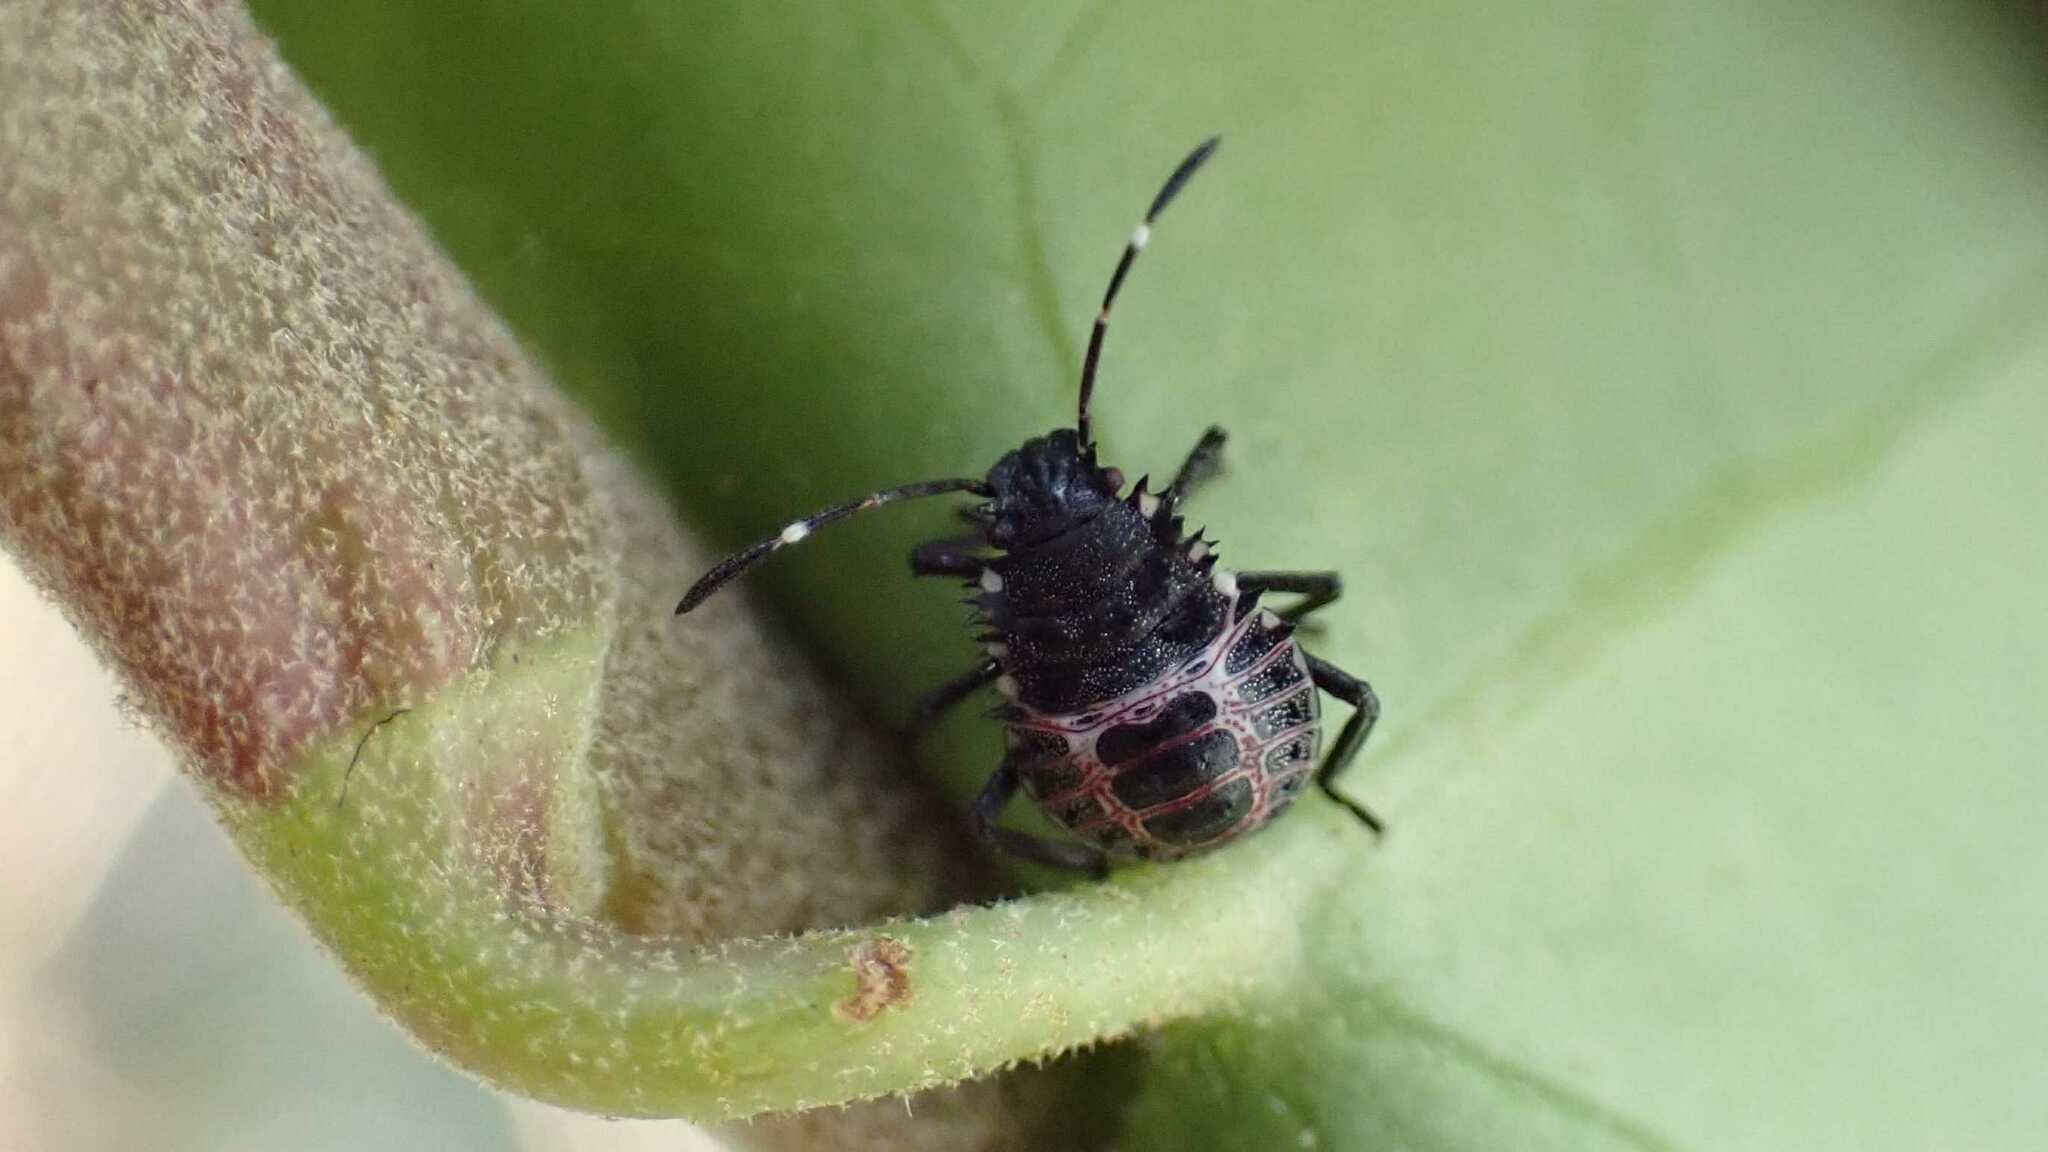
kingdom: Animalia
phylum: Arthropoda
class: Insecta
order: Hemiptera
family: Pentatomidae
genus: Halyomorpha
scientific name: Halyomorpha halys
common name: Brown marmorated stink bug
